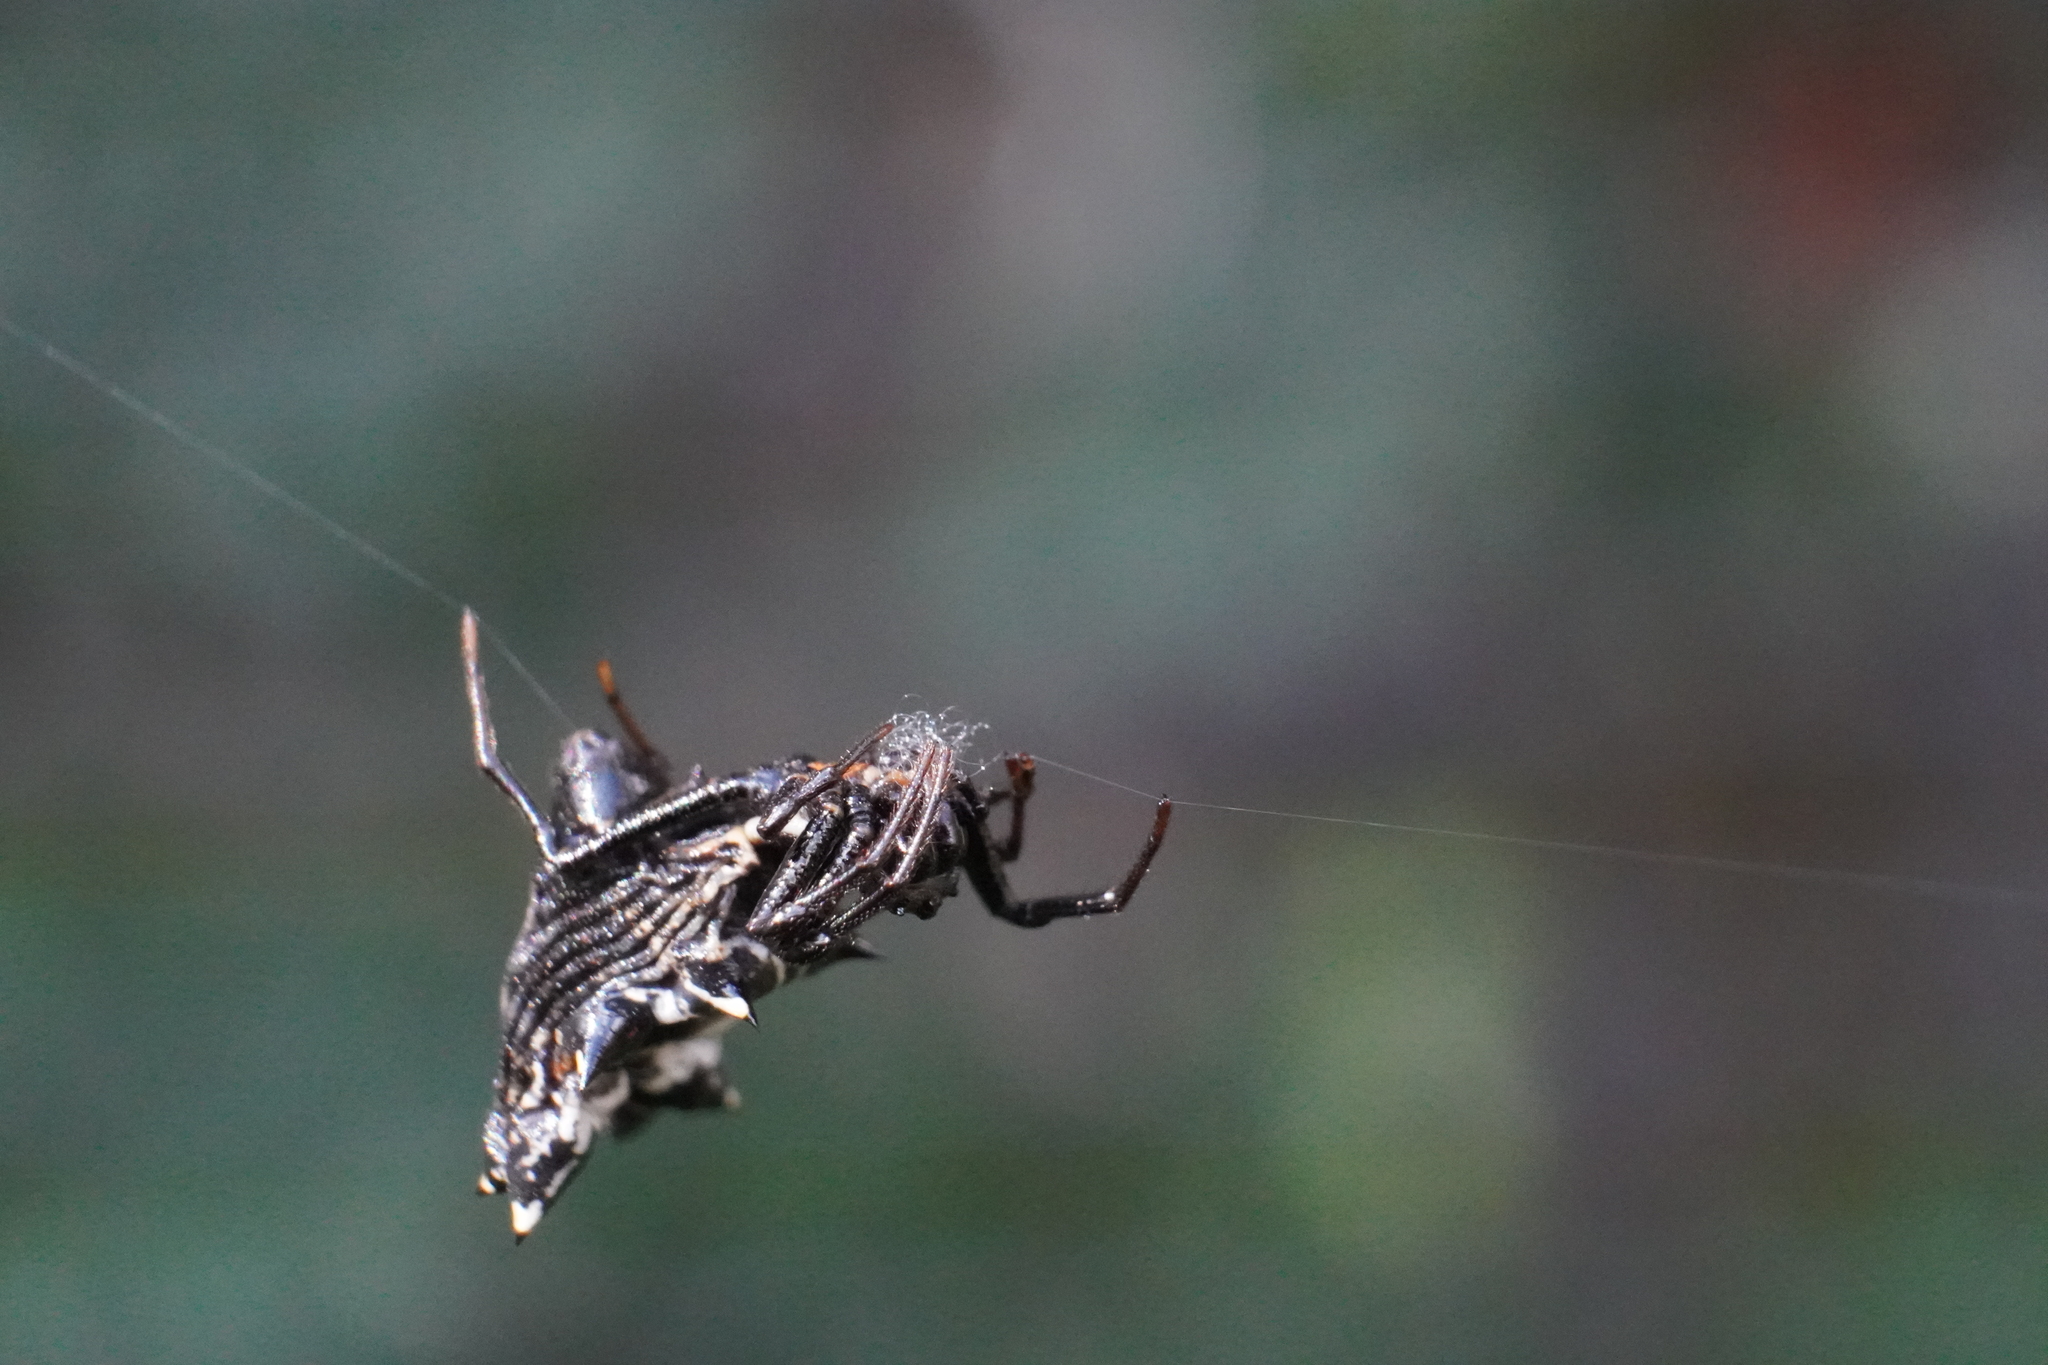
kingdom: Animalia
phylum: Arthropoda
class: Arachnida
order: Araneae
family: Araneidae
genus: Micrathena
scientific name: Micrathena gracilis
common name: Orb weavers
